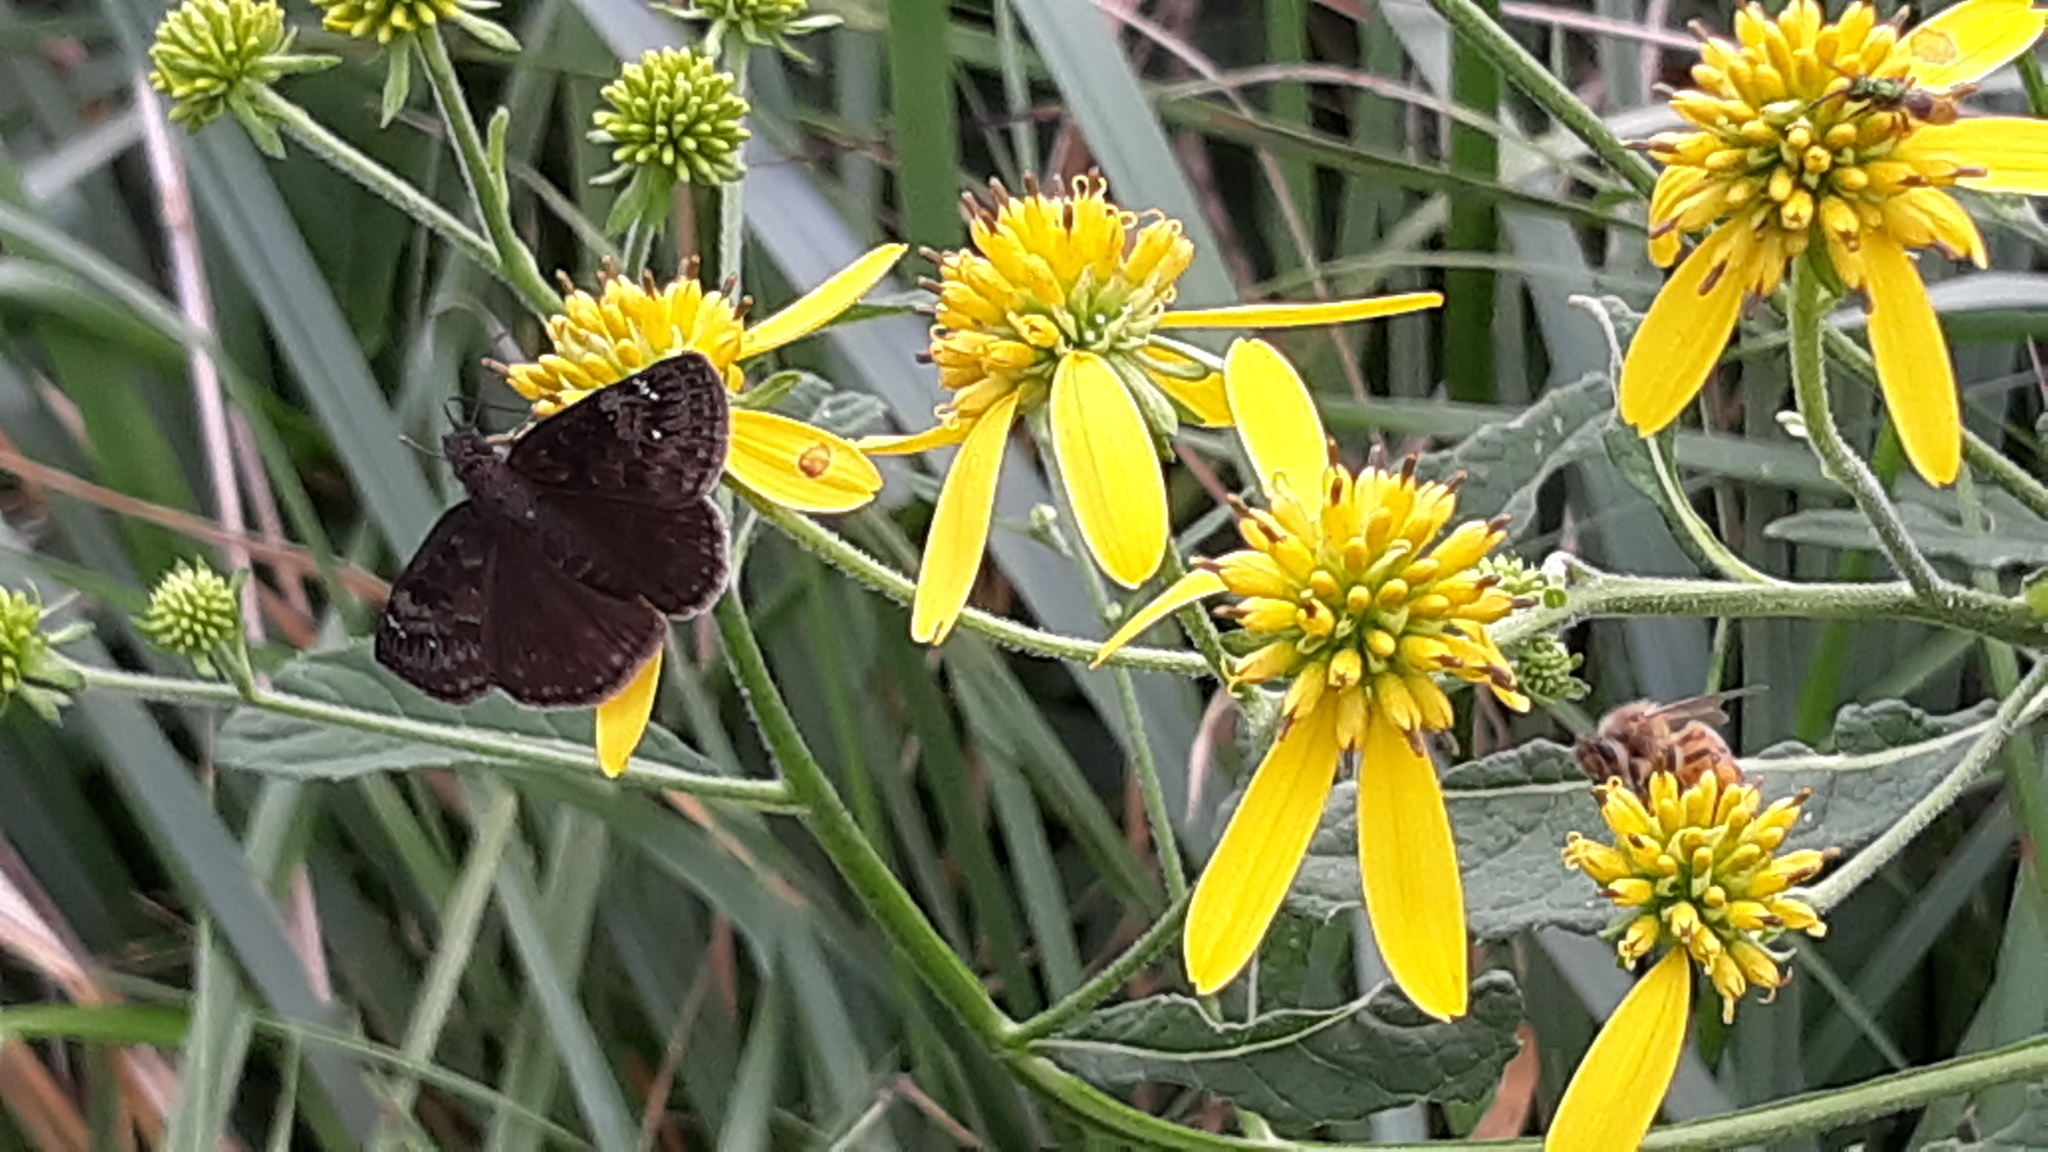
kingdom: Animalia
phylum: Arthropoda
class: Insecta
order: Lepidoptera
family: Hesperiidae
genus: Erynnis
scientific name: Erynnis baptisiae
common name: Wild indigo duskywing
